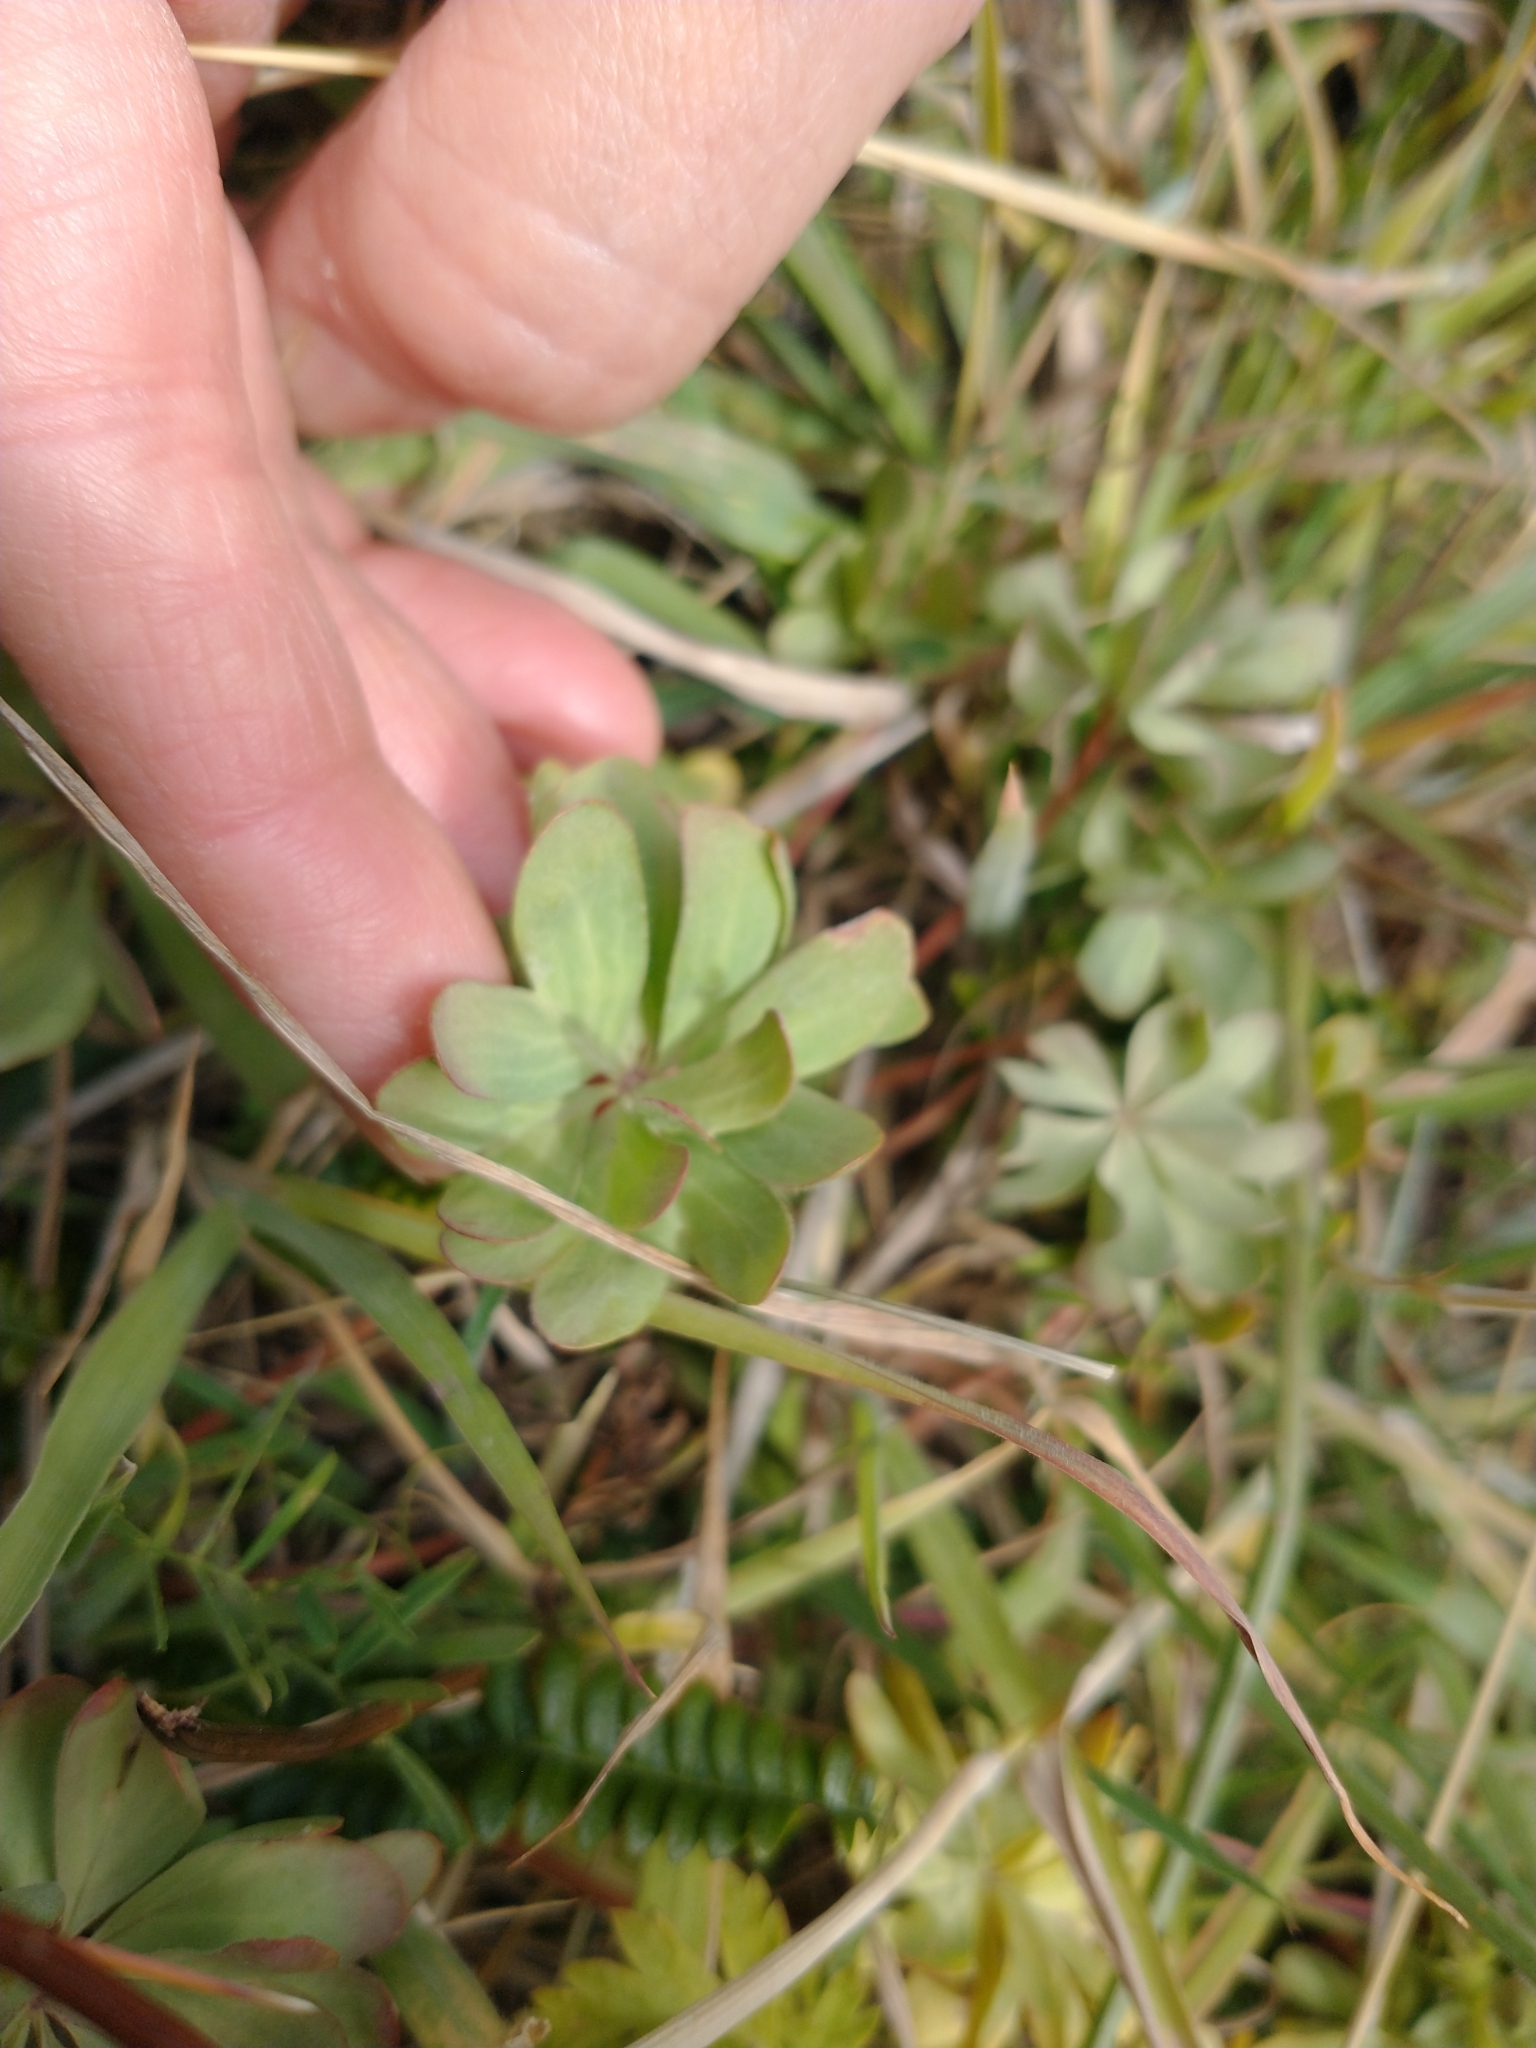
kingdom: Plantae
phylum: Tracheophyta
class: Magnoliopsida
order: Oxalidales
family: Oxalidaceae
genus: Oxalis
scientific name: Oxalis enneaphylla
